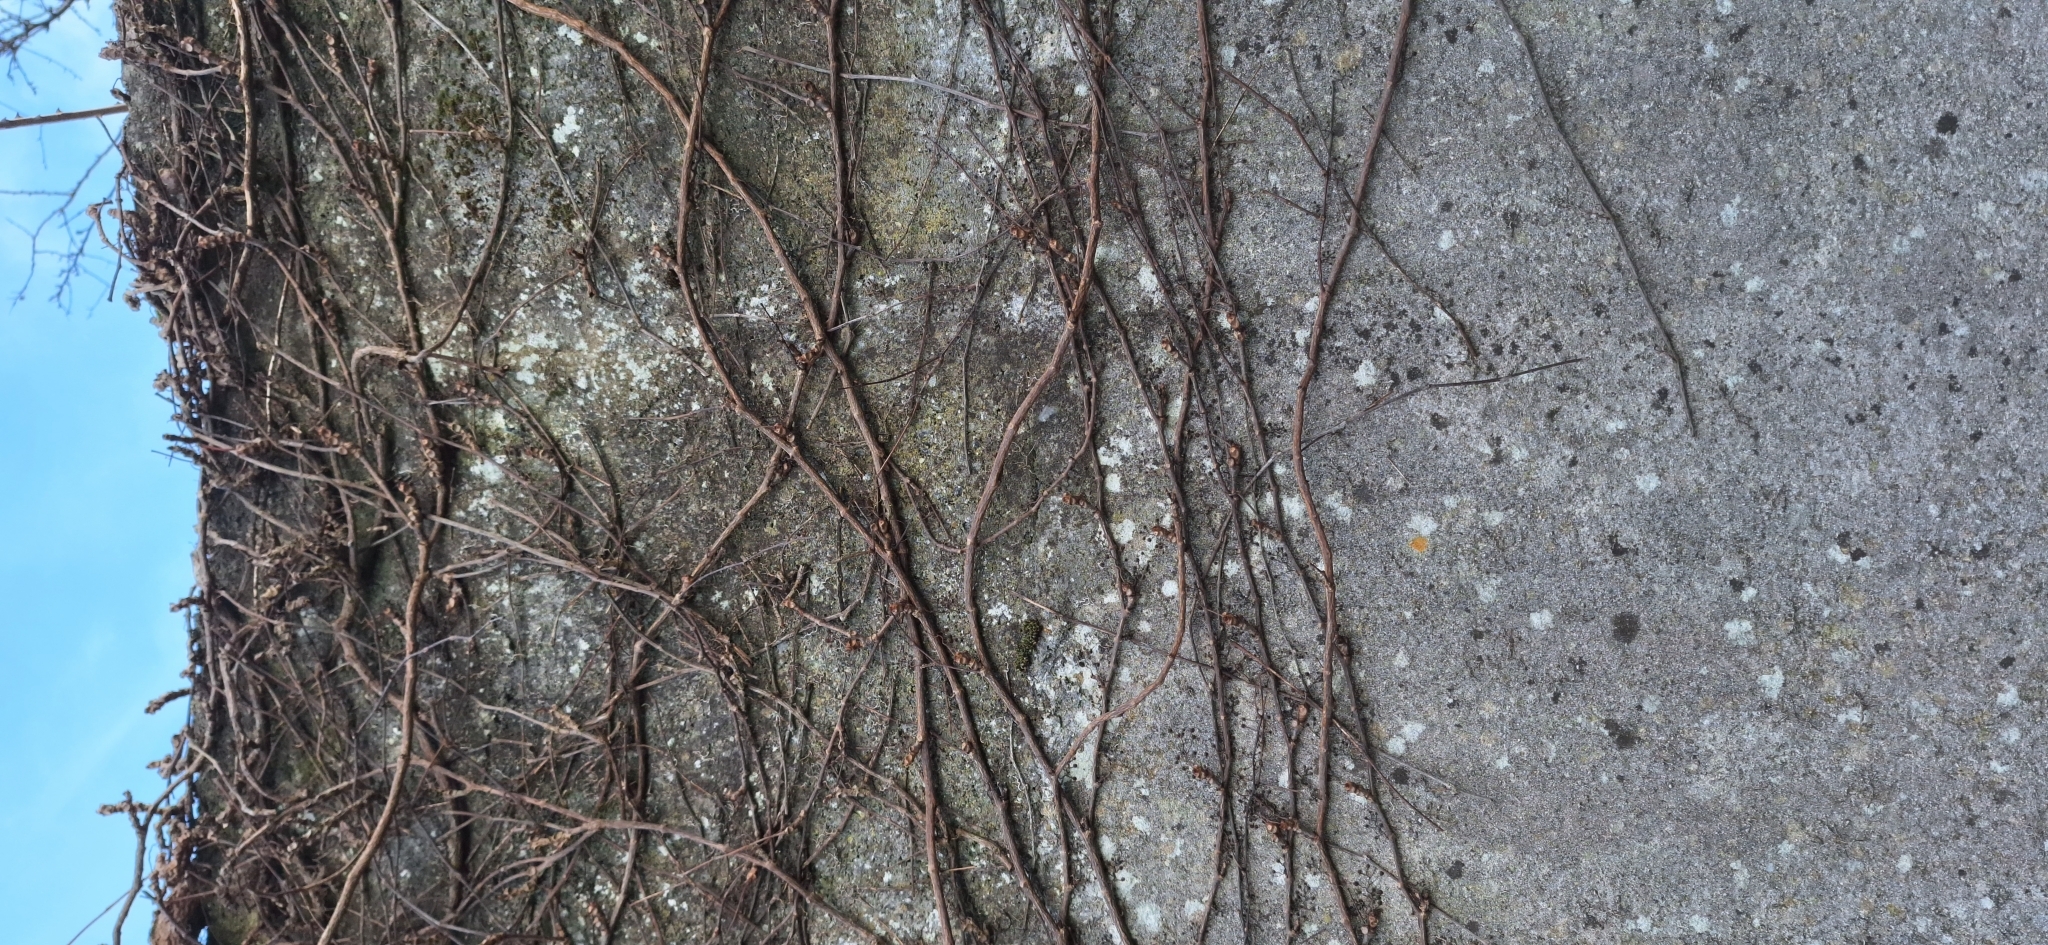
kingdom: Plantae
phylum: Tracheophyta
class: Magnoliopsida
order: Vitales
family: Vitaceae
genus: Parthenocissus
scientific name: Parthenocissus tricuspidata
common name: Boston ivy
